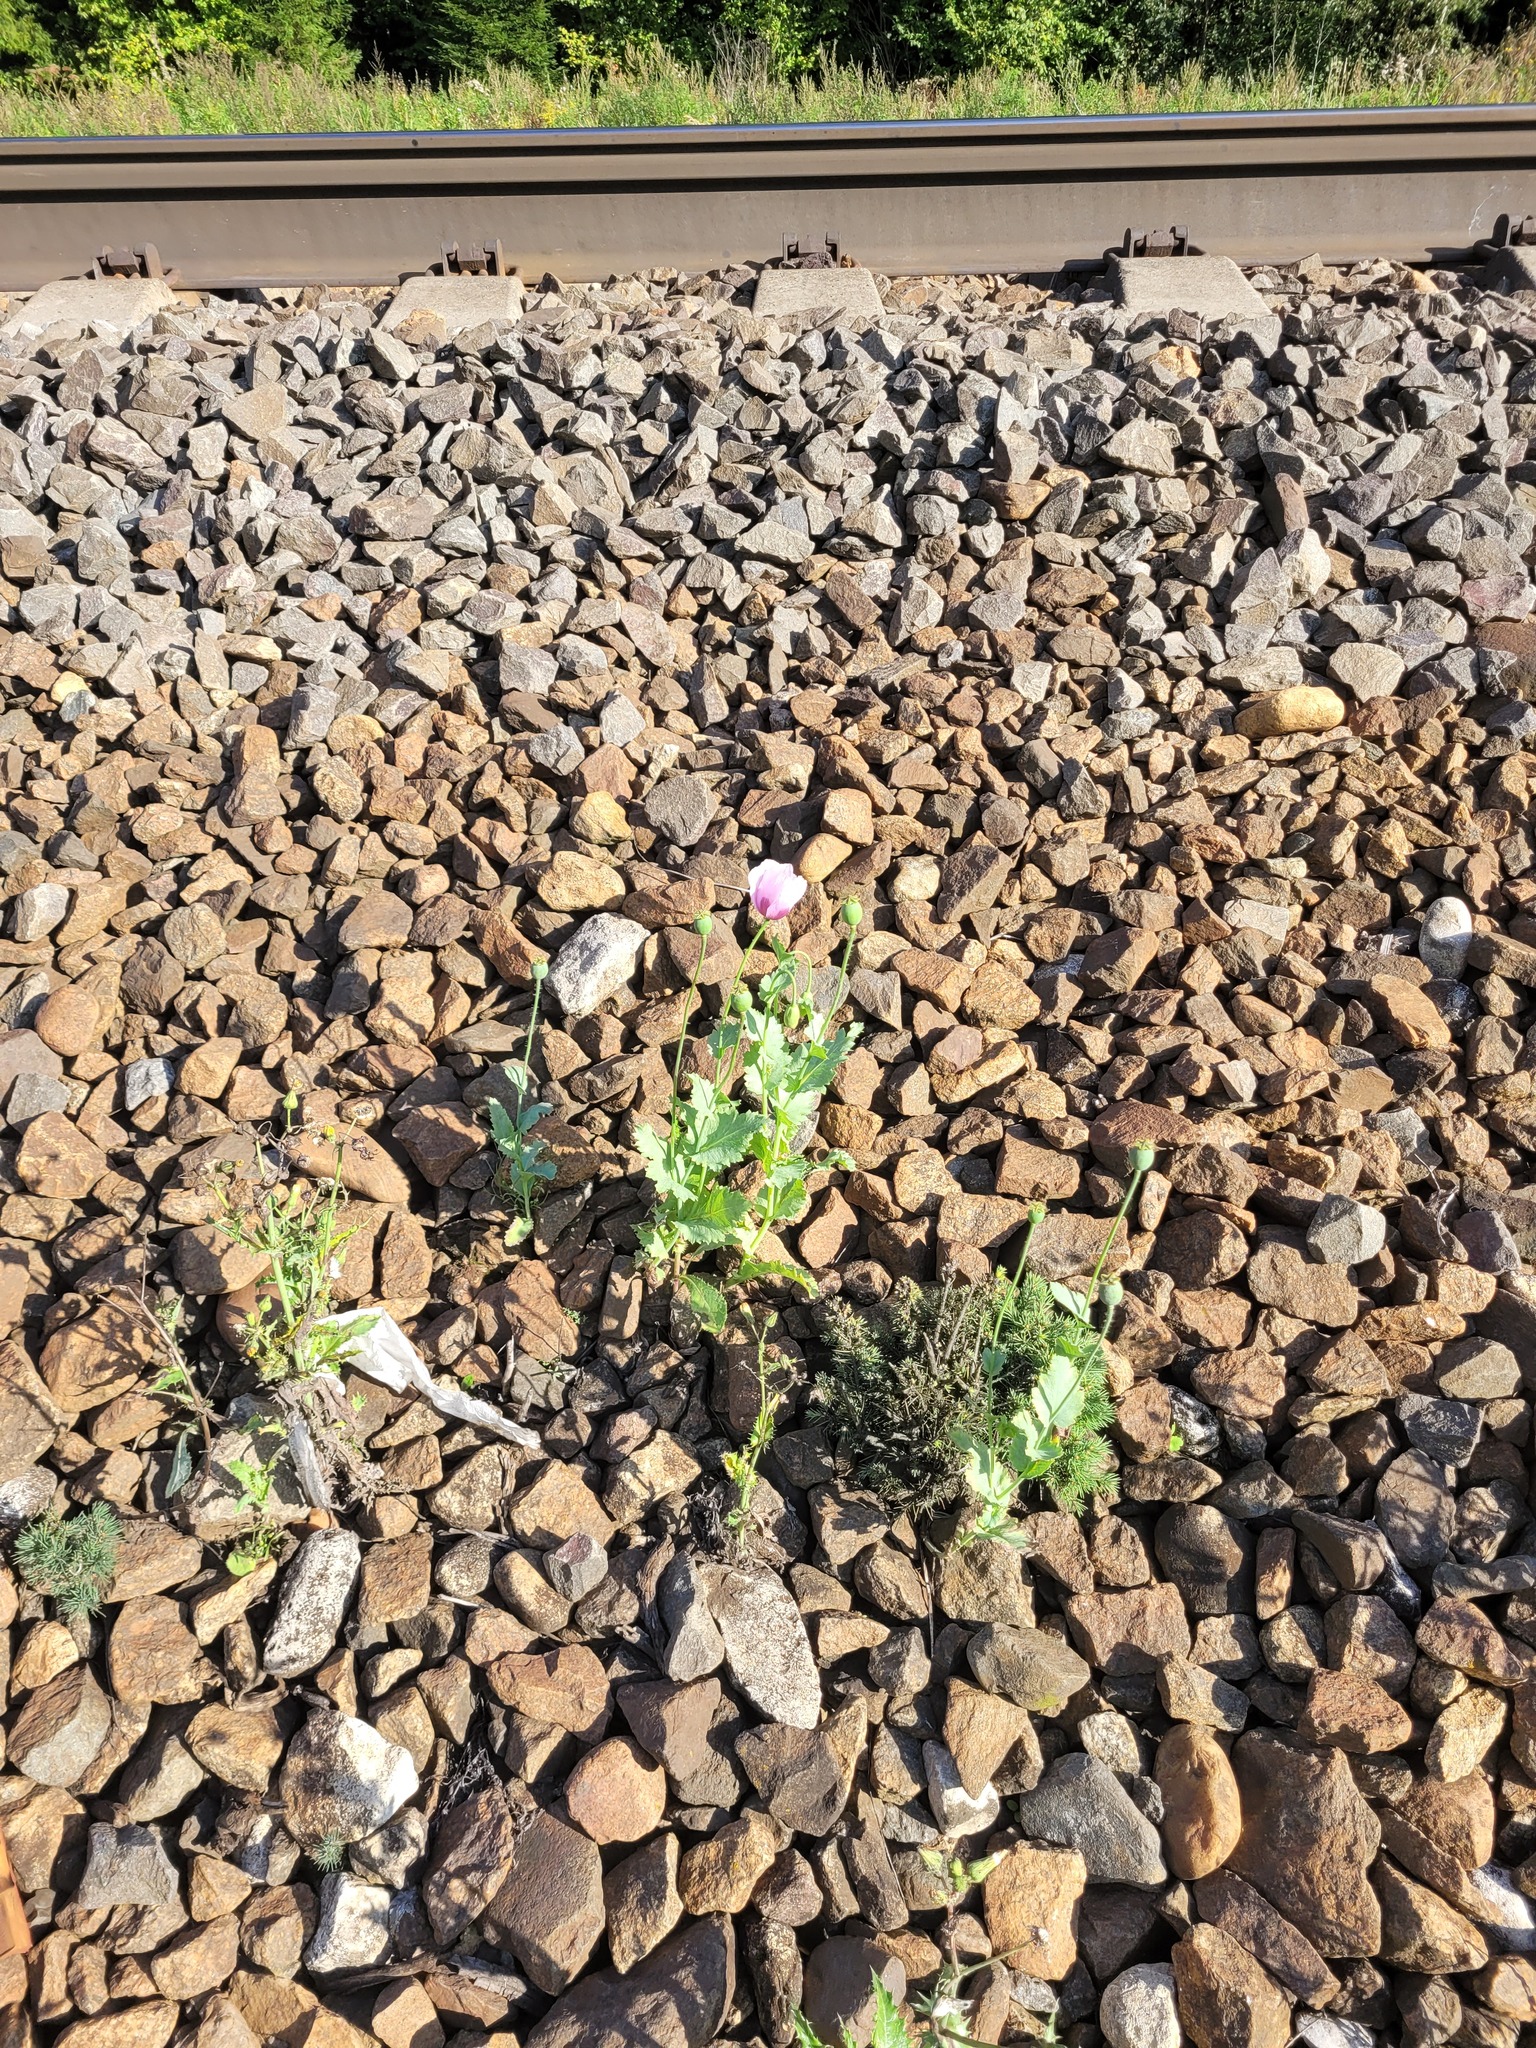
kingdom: Plantae
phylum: Tracheophyta
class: Magnoliopsida
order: Ranunculales
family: Papaveraceae
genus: Papaver
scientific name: Papaver somniferum
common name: Opium poppy
